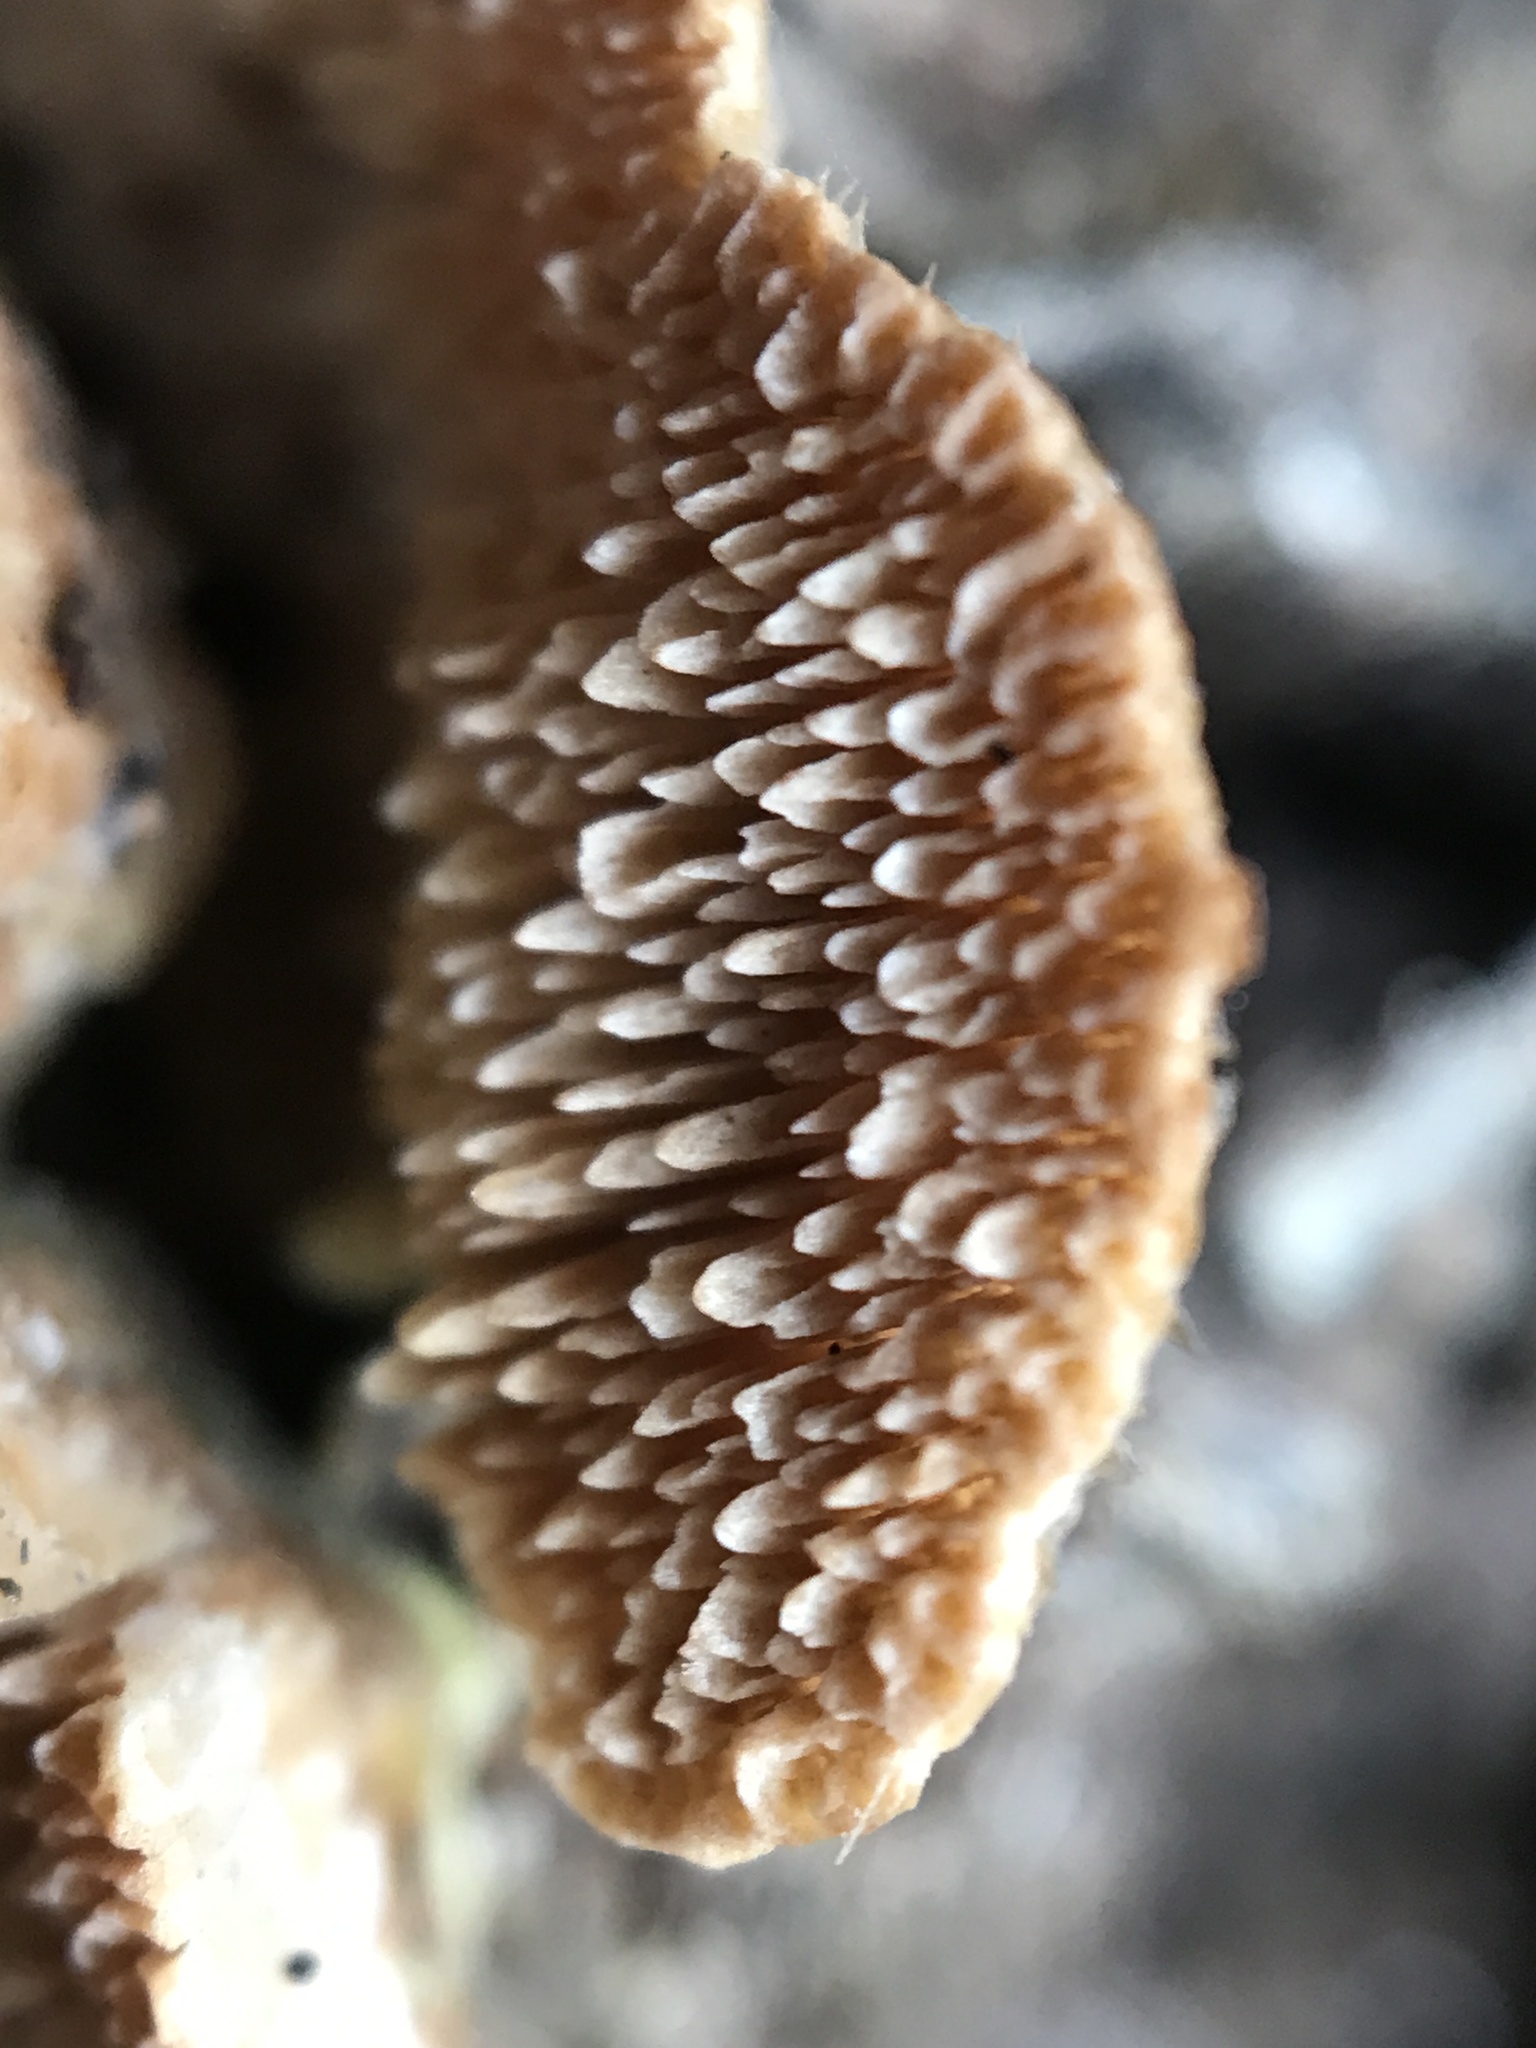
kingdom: Fungi
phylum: Basidiomycota
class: Agaricomycetes
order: Hymenochaetales
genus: Trichaptum
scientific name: Trichaptum abietinum
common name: Purplepore bracket
